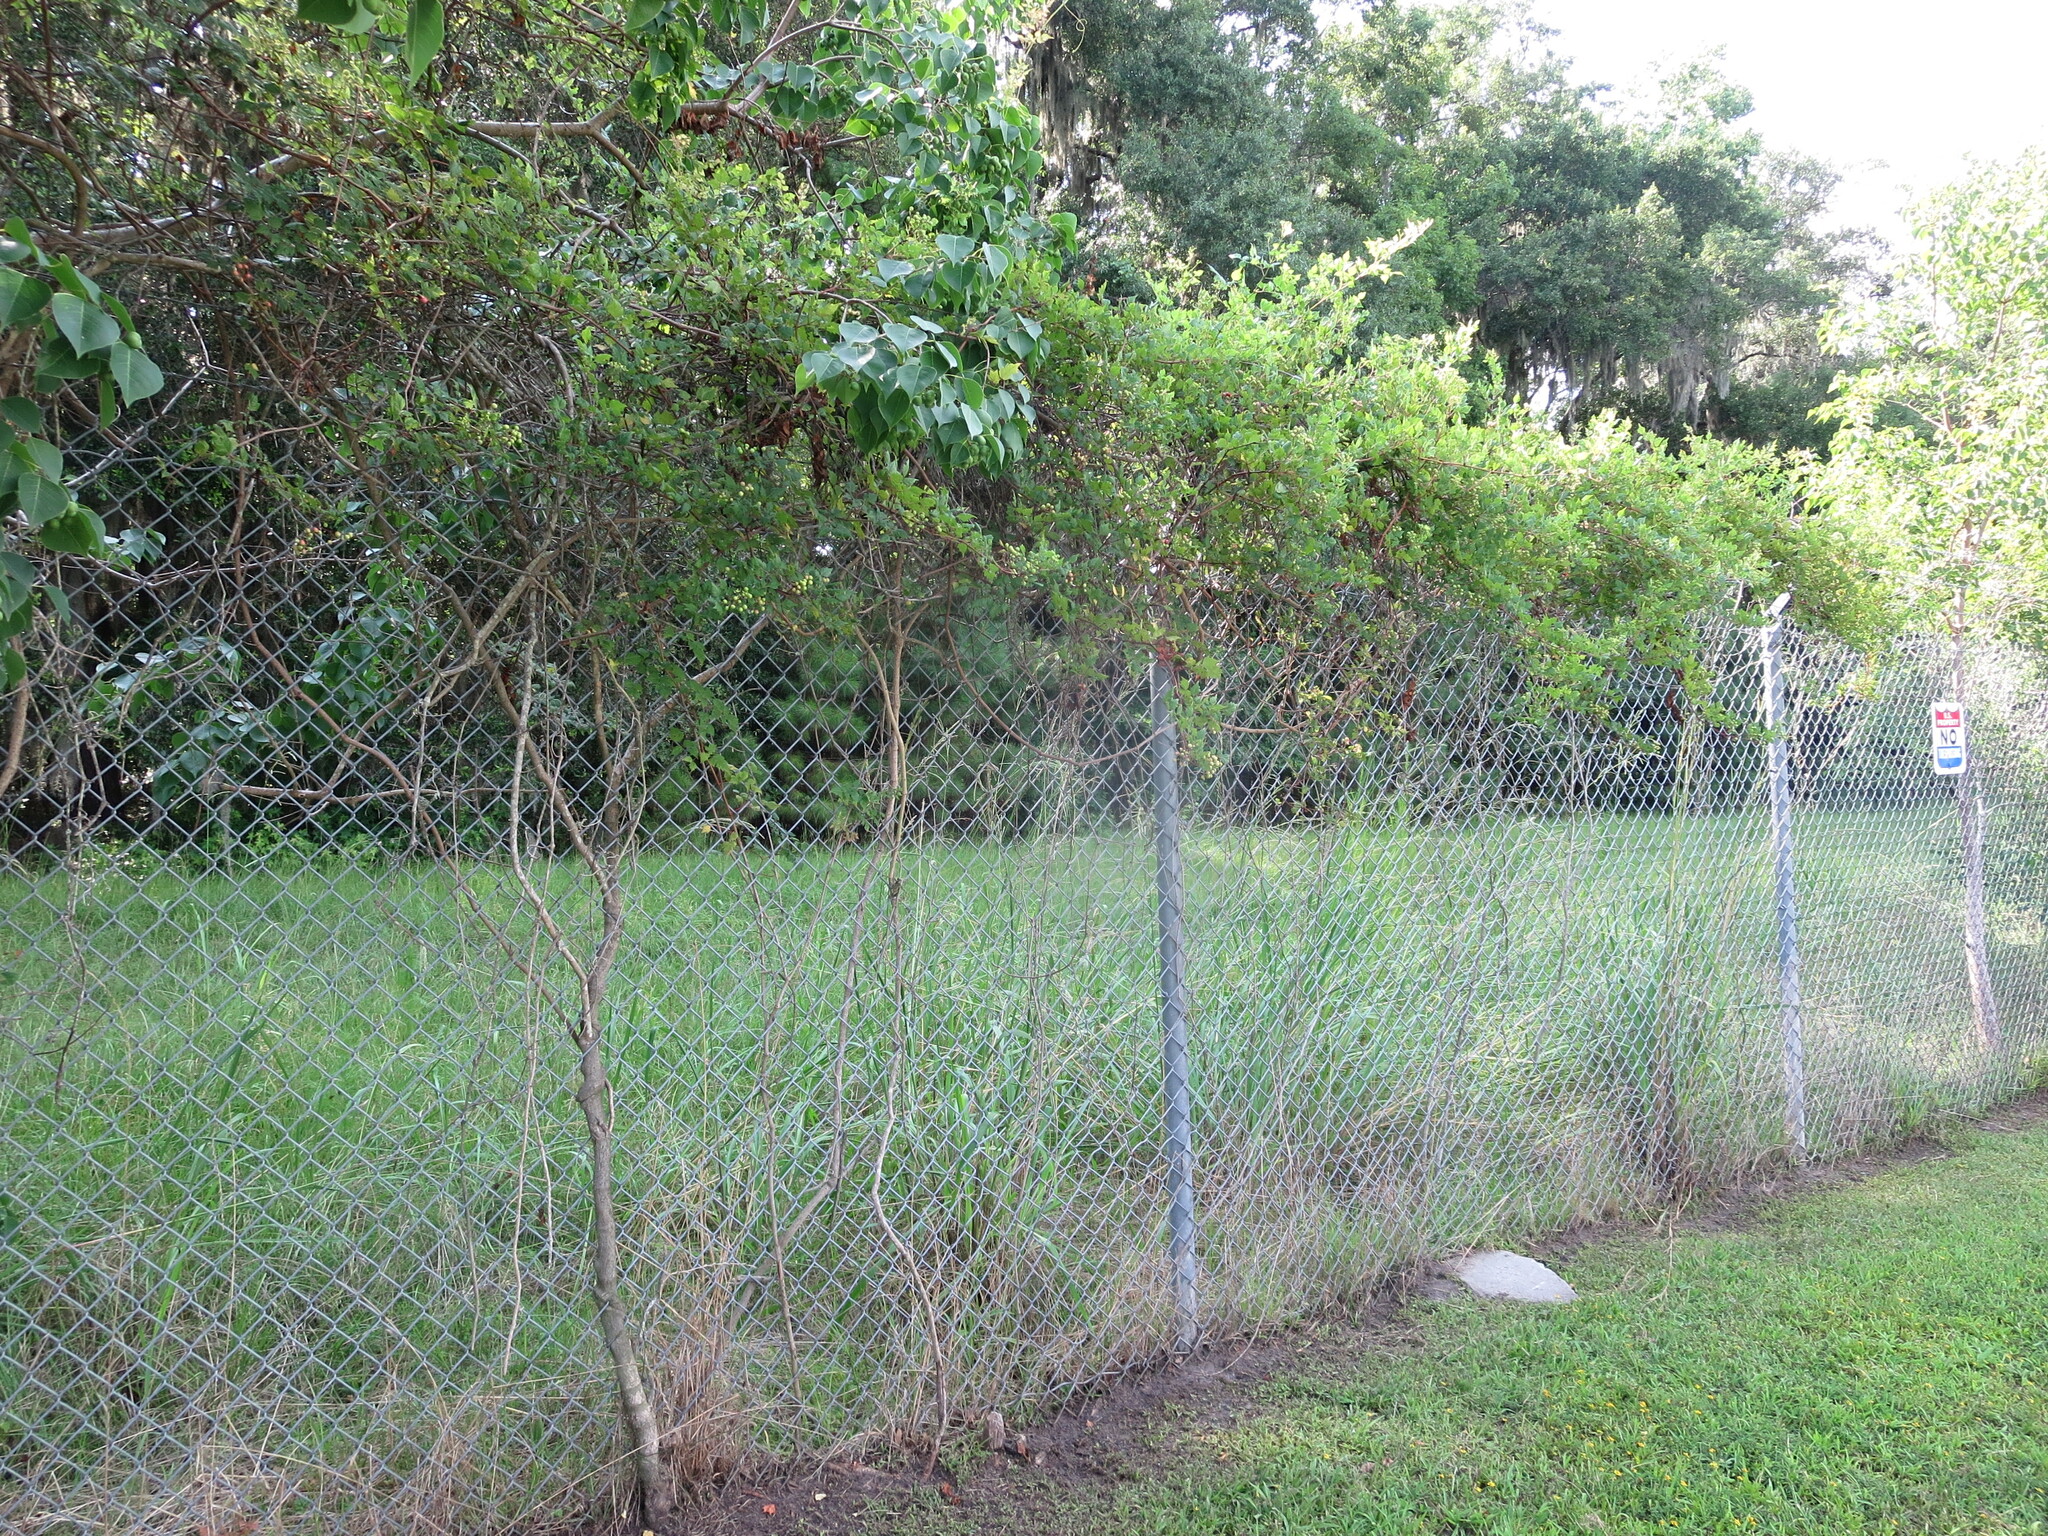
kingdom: Plantae
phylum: Tracheophyta
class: Magnoliopsida
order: Vitales
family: Vitaceae
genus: Nekemias
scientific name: Nekemias arborea
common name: Peppervine
